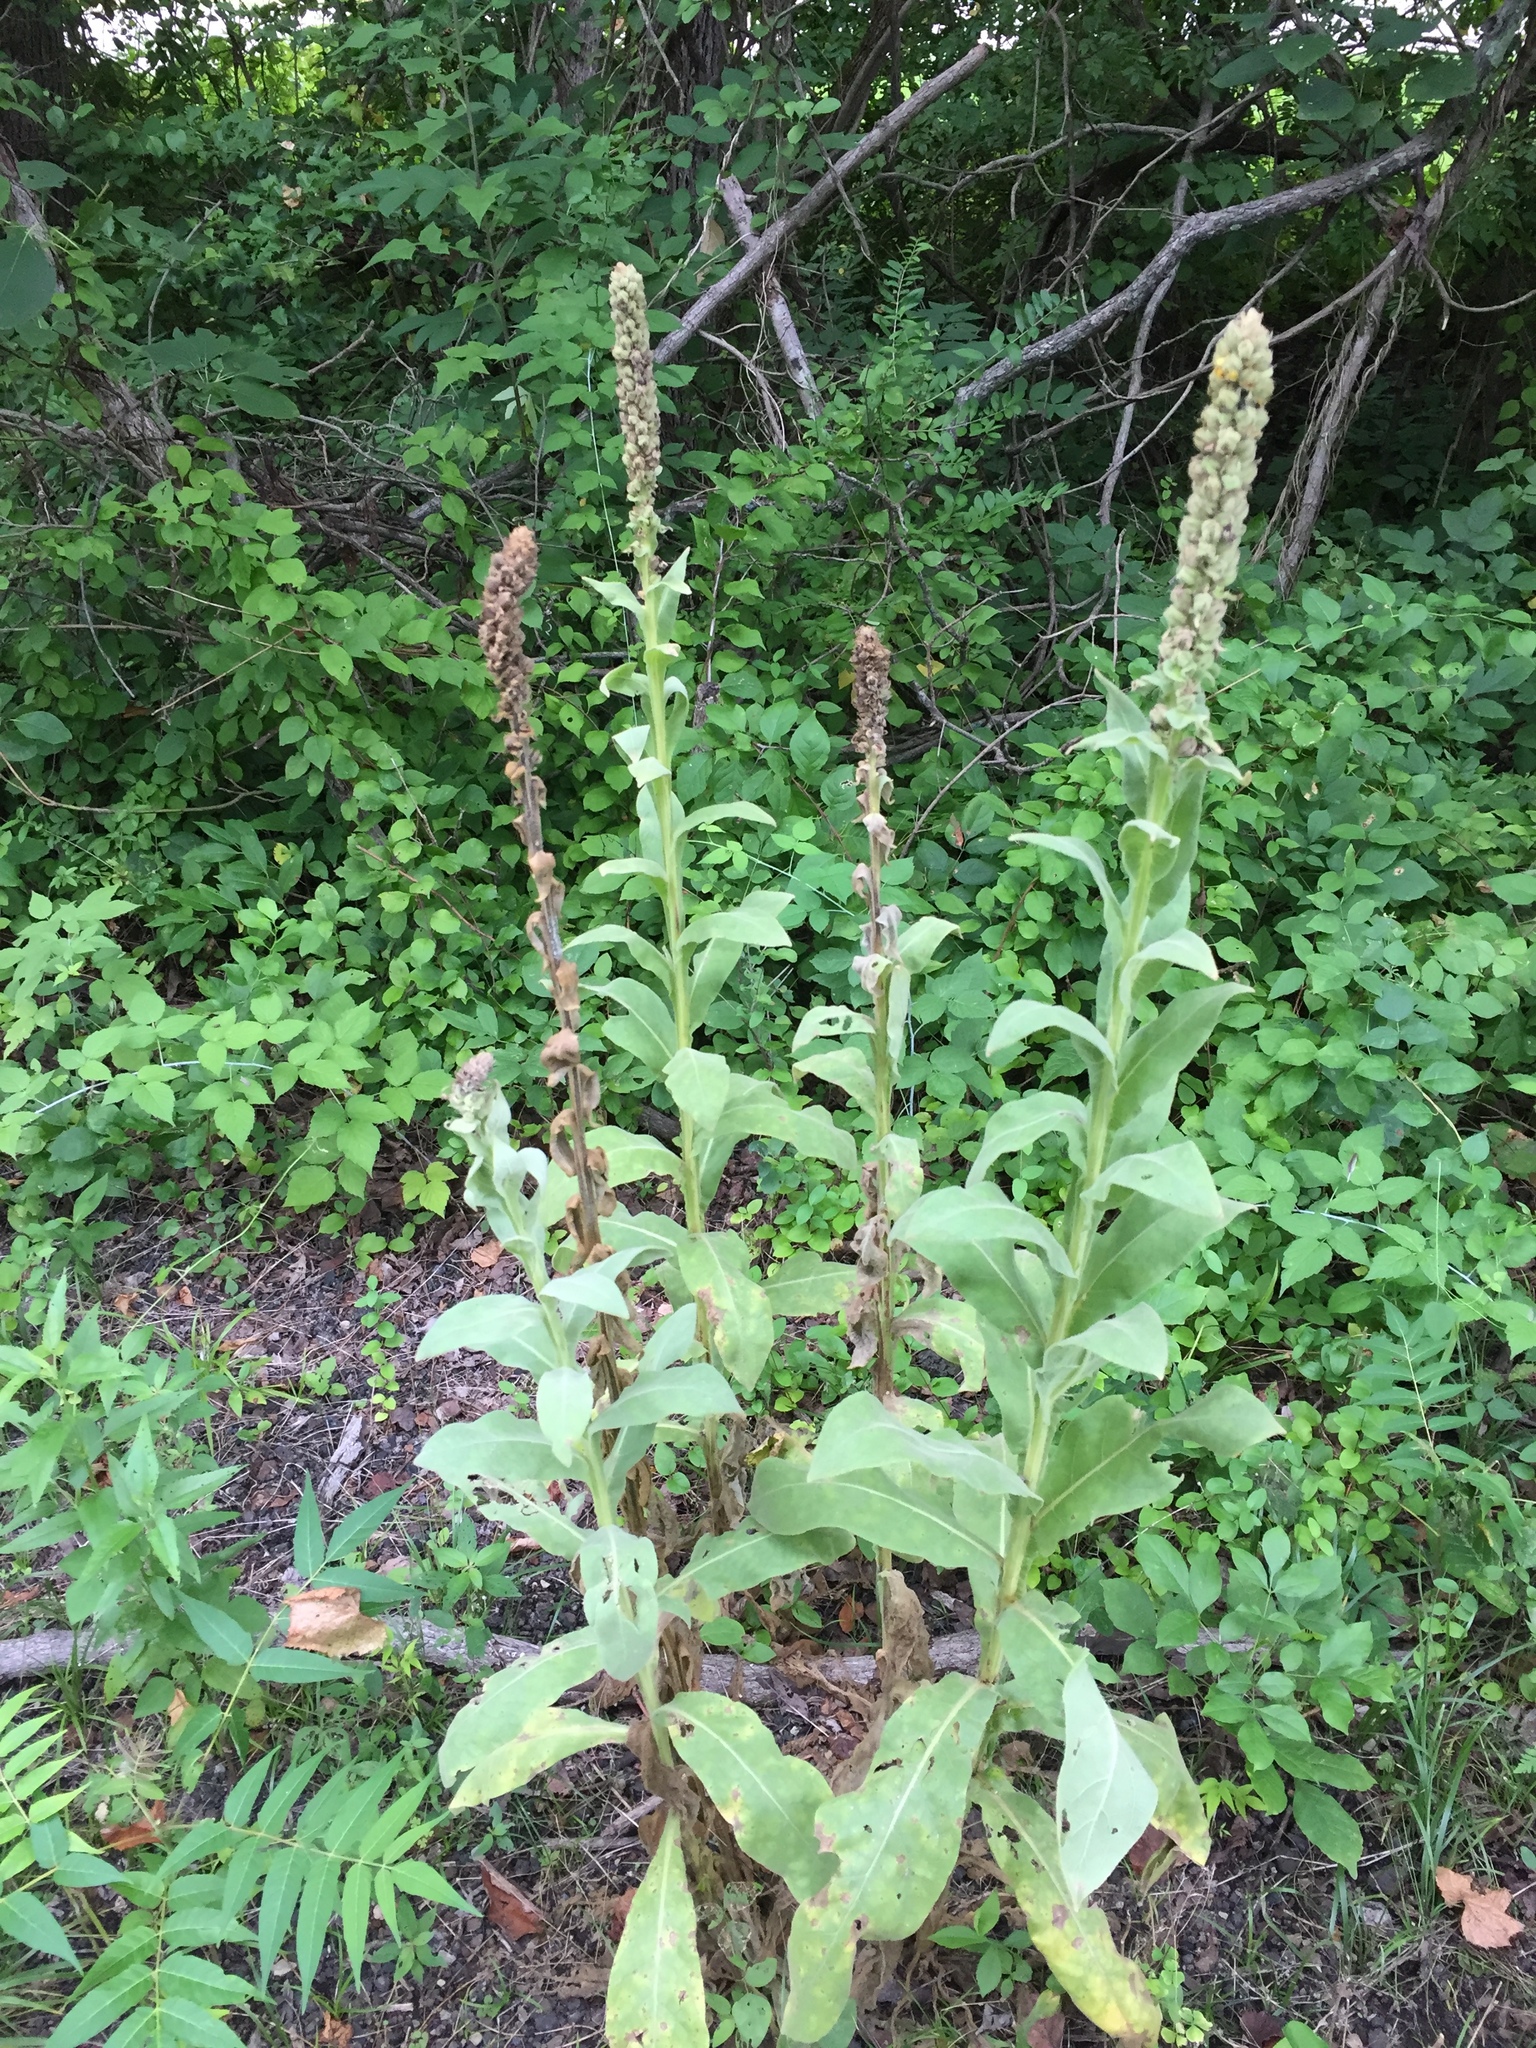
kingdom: Plantae
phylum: Tracheophyta
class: Magnoliopsida
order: Lamiales
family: Scrophulariaceae
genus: Verbascum
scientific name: Verbascum thapsus
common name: Common mullein
